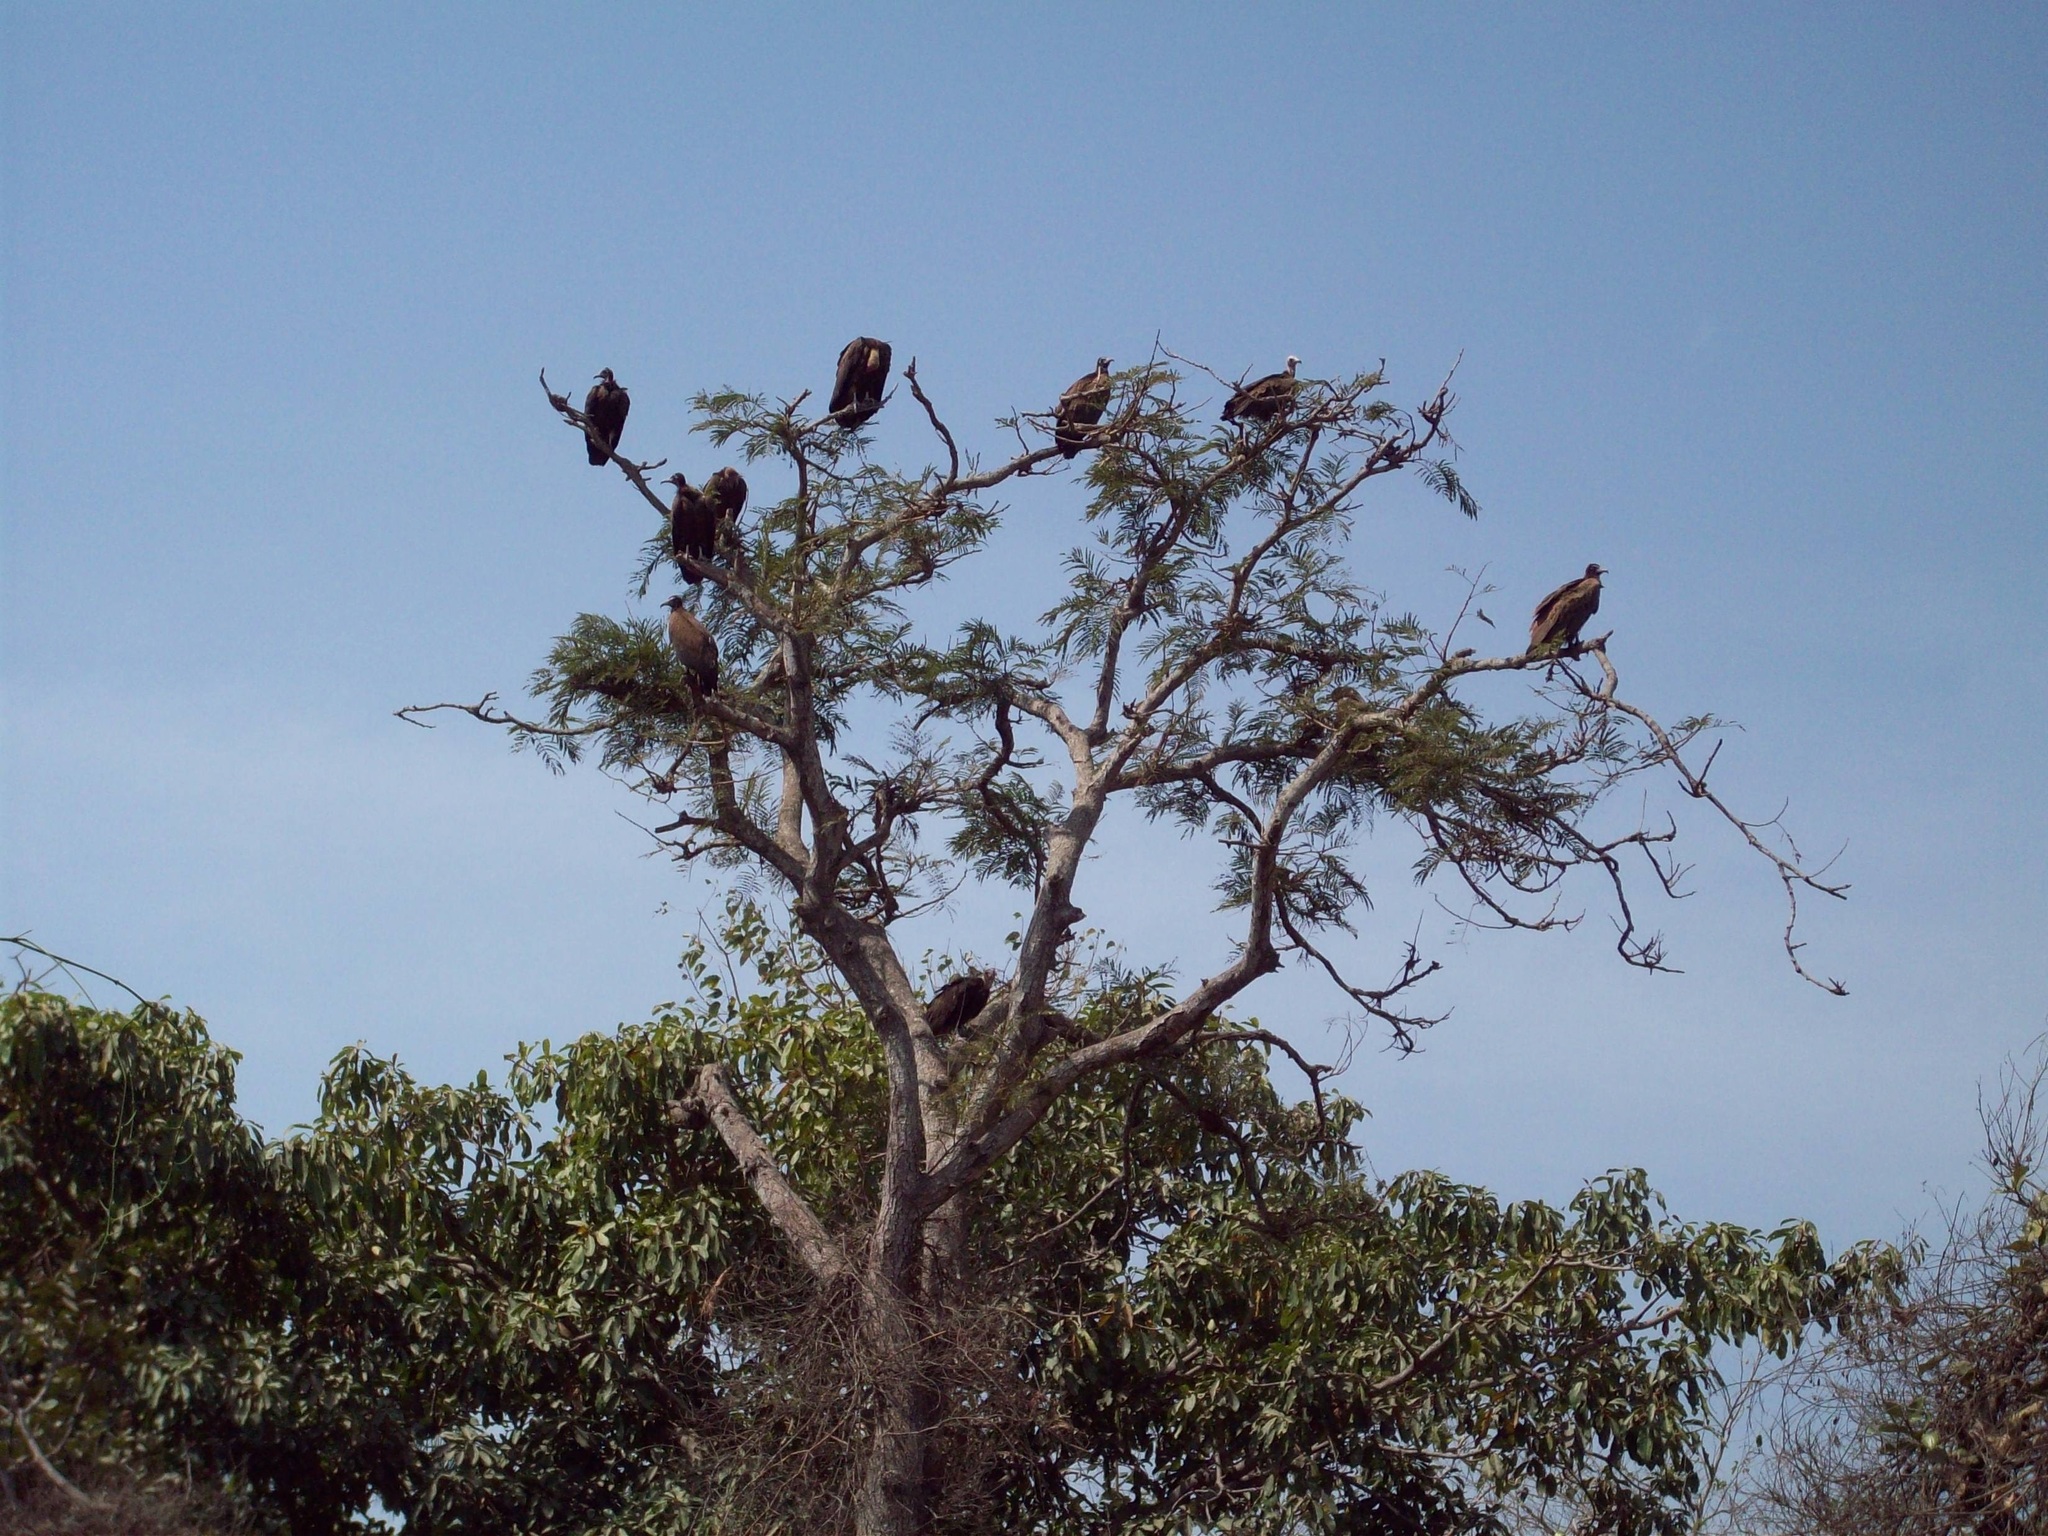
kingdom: Animalia
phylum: Chordata
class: Aves
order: Accipitriformes
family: Accipitridae
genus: Necrosyrtes
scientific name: Necrosyrtes monachus
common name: Hooded vulture
